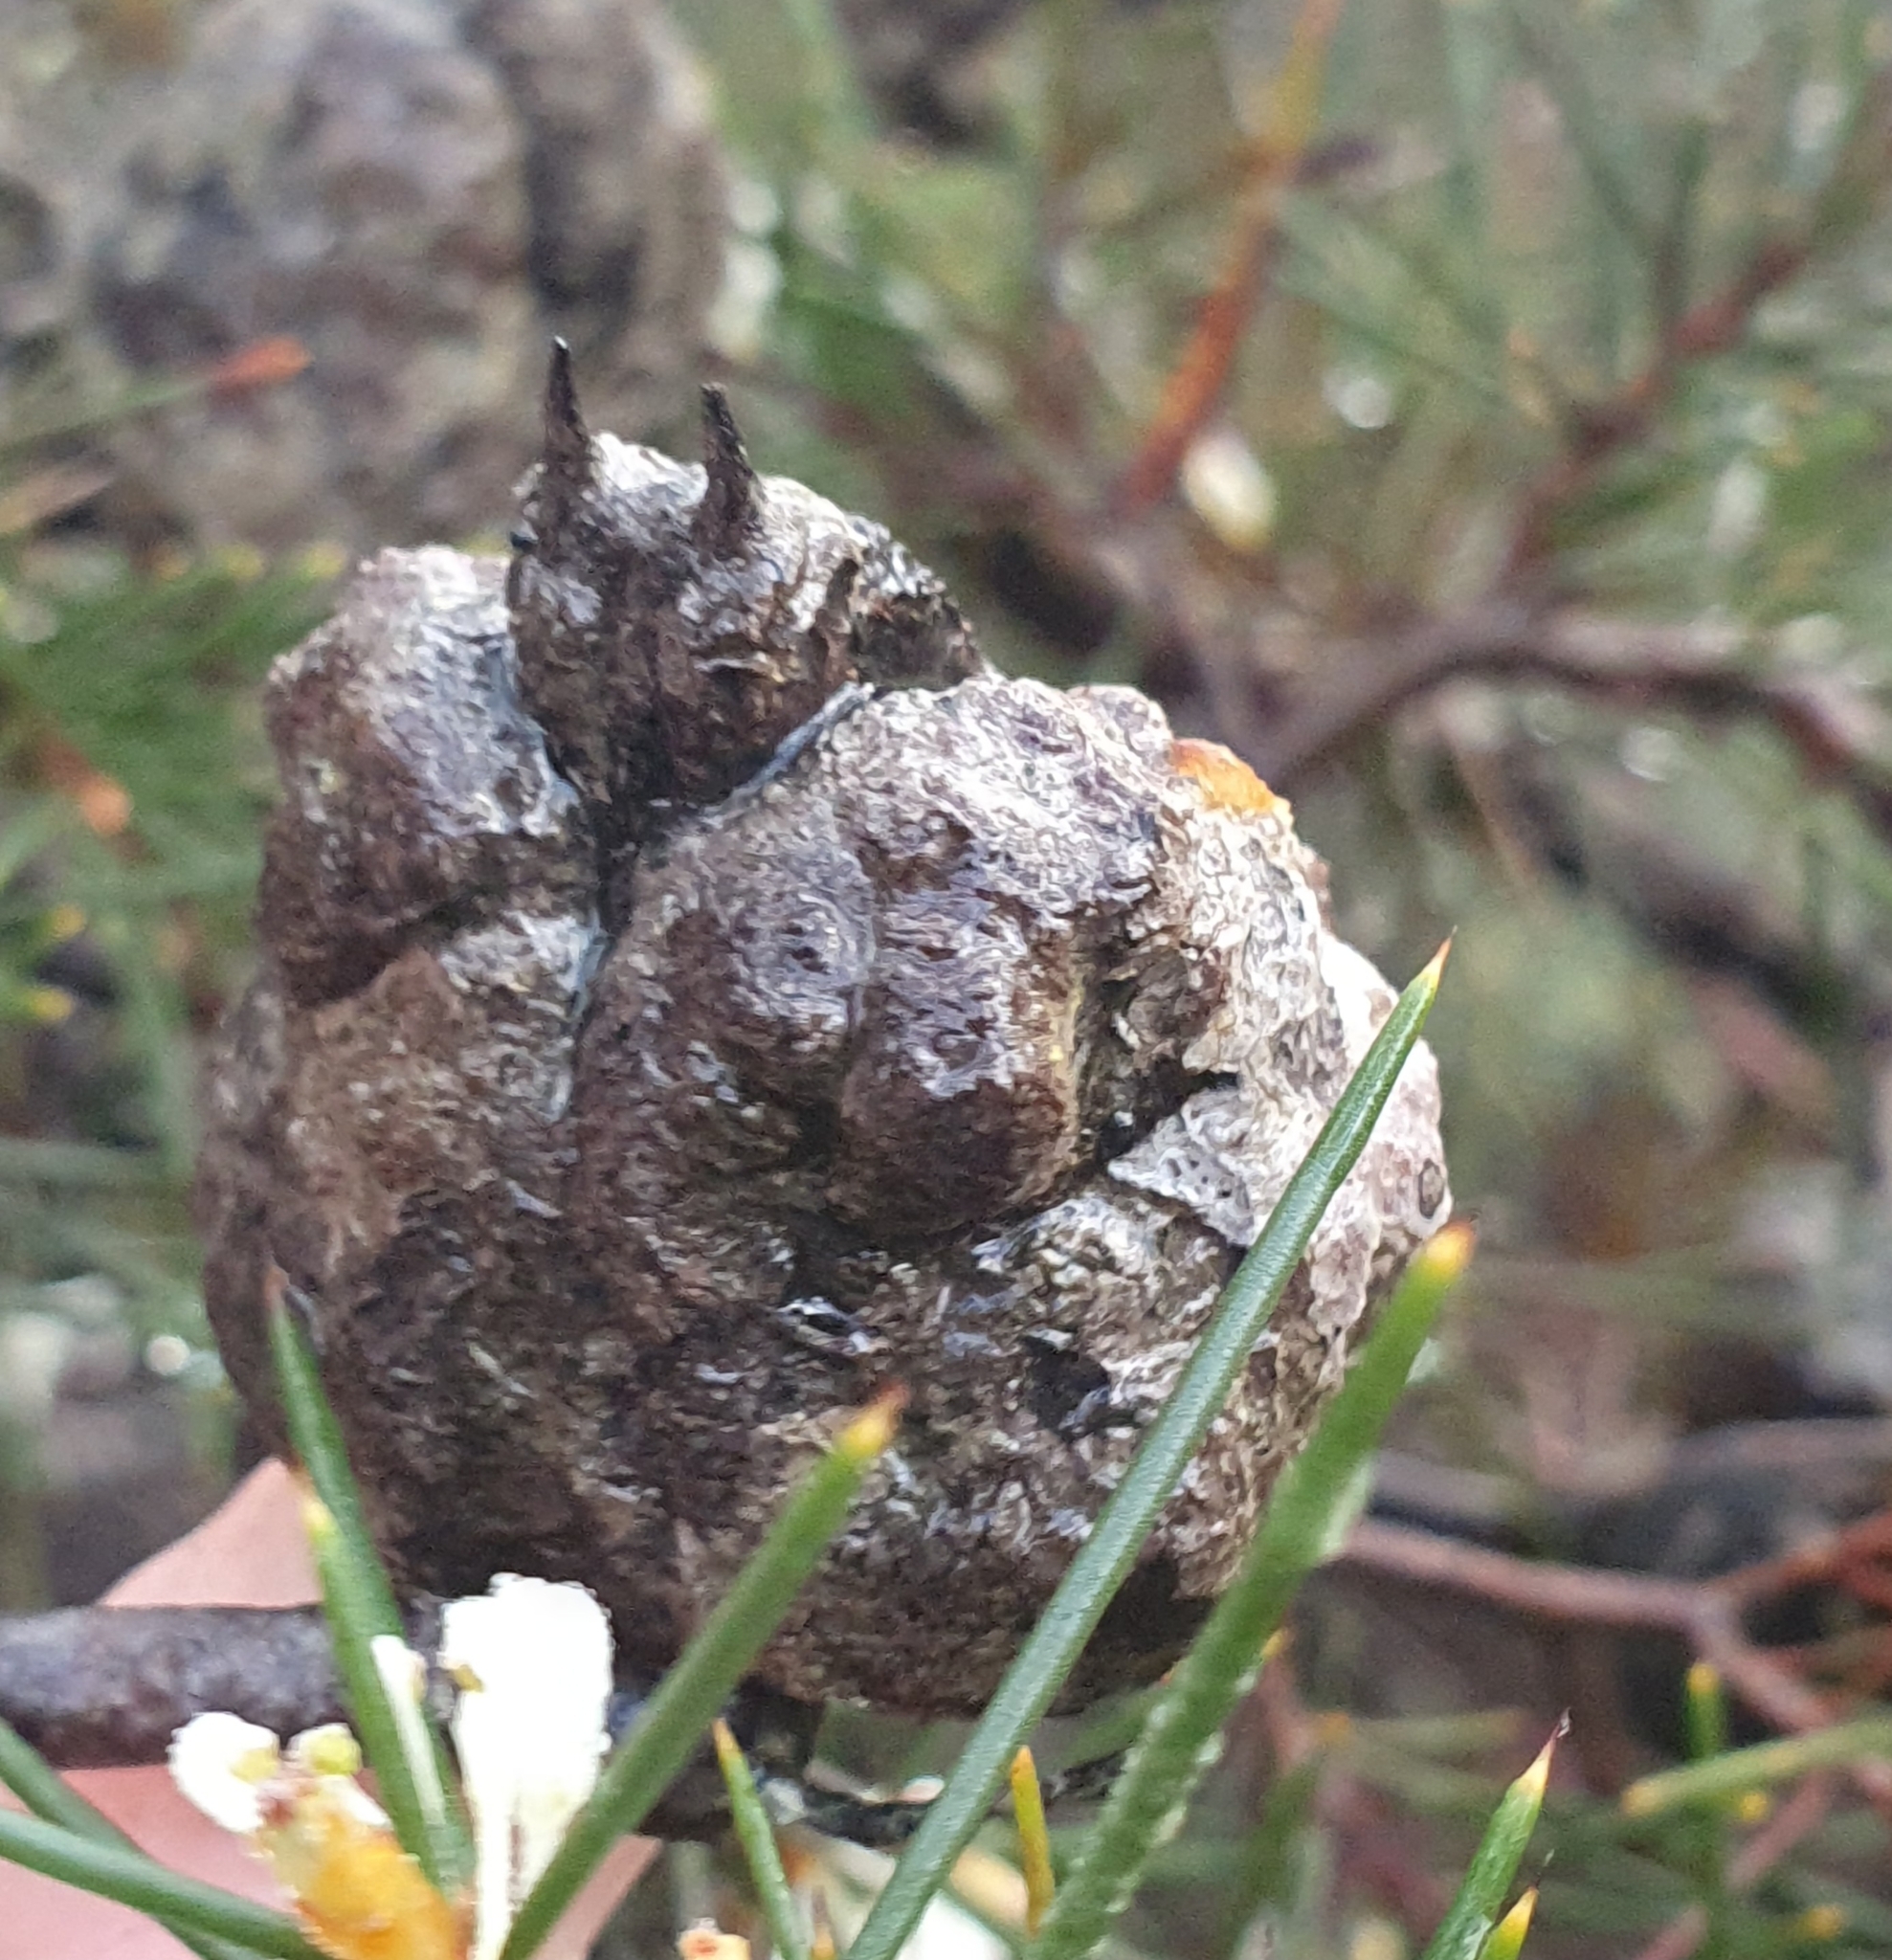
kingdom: Plantae
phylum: Tracheophyta
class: Magnoliopsida
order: Proteales
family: Proteaceae
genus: Hakea
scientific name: Hakea sericea
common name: Needle bush
